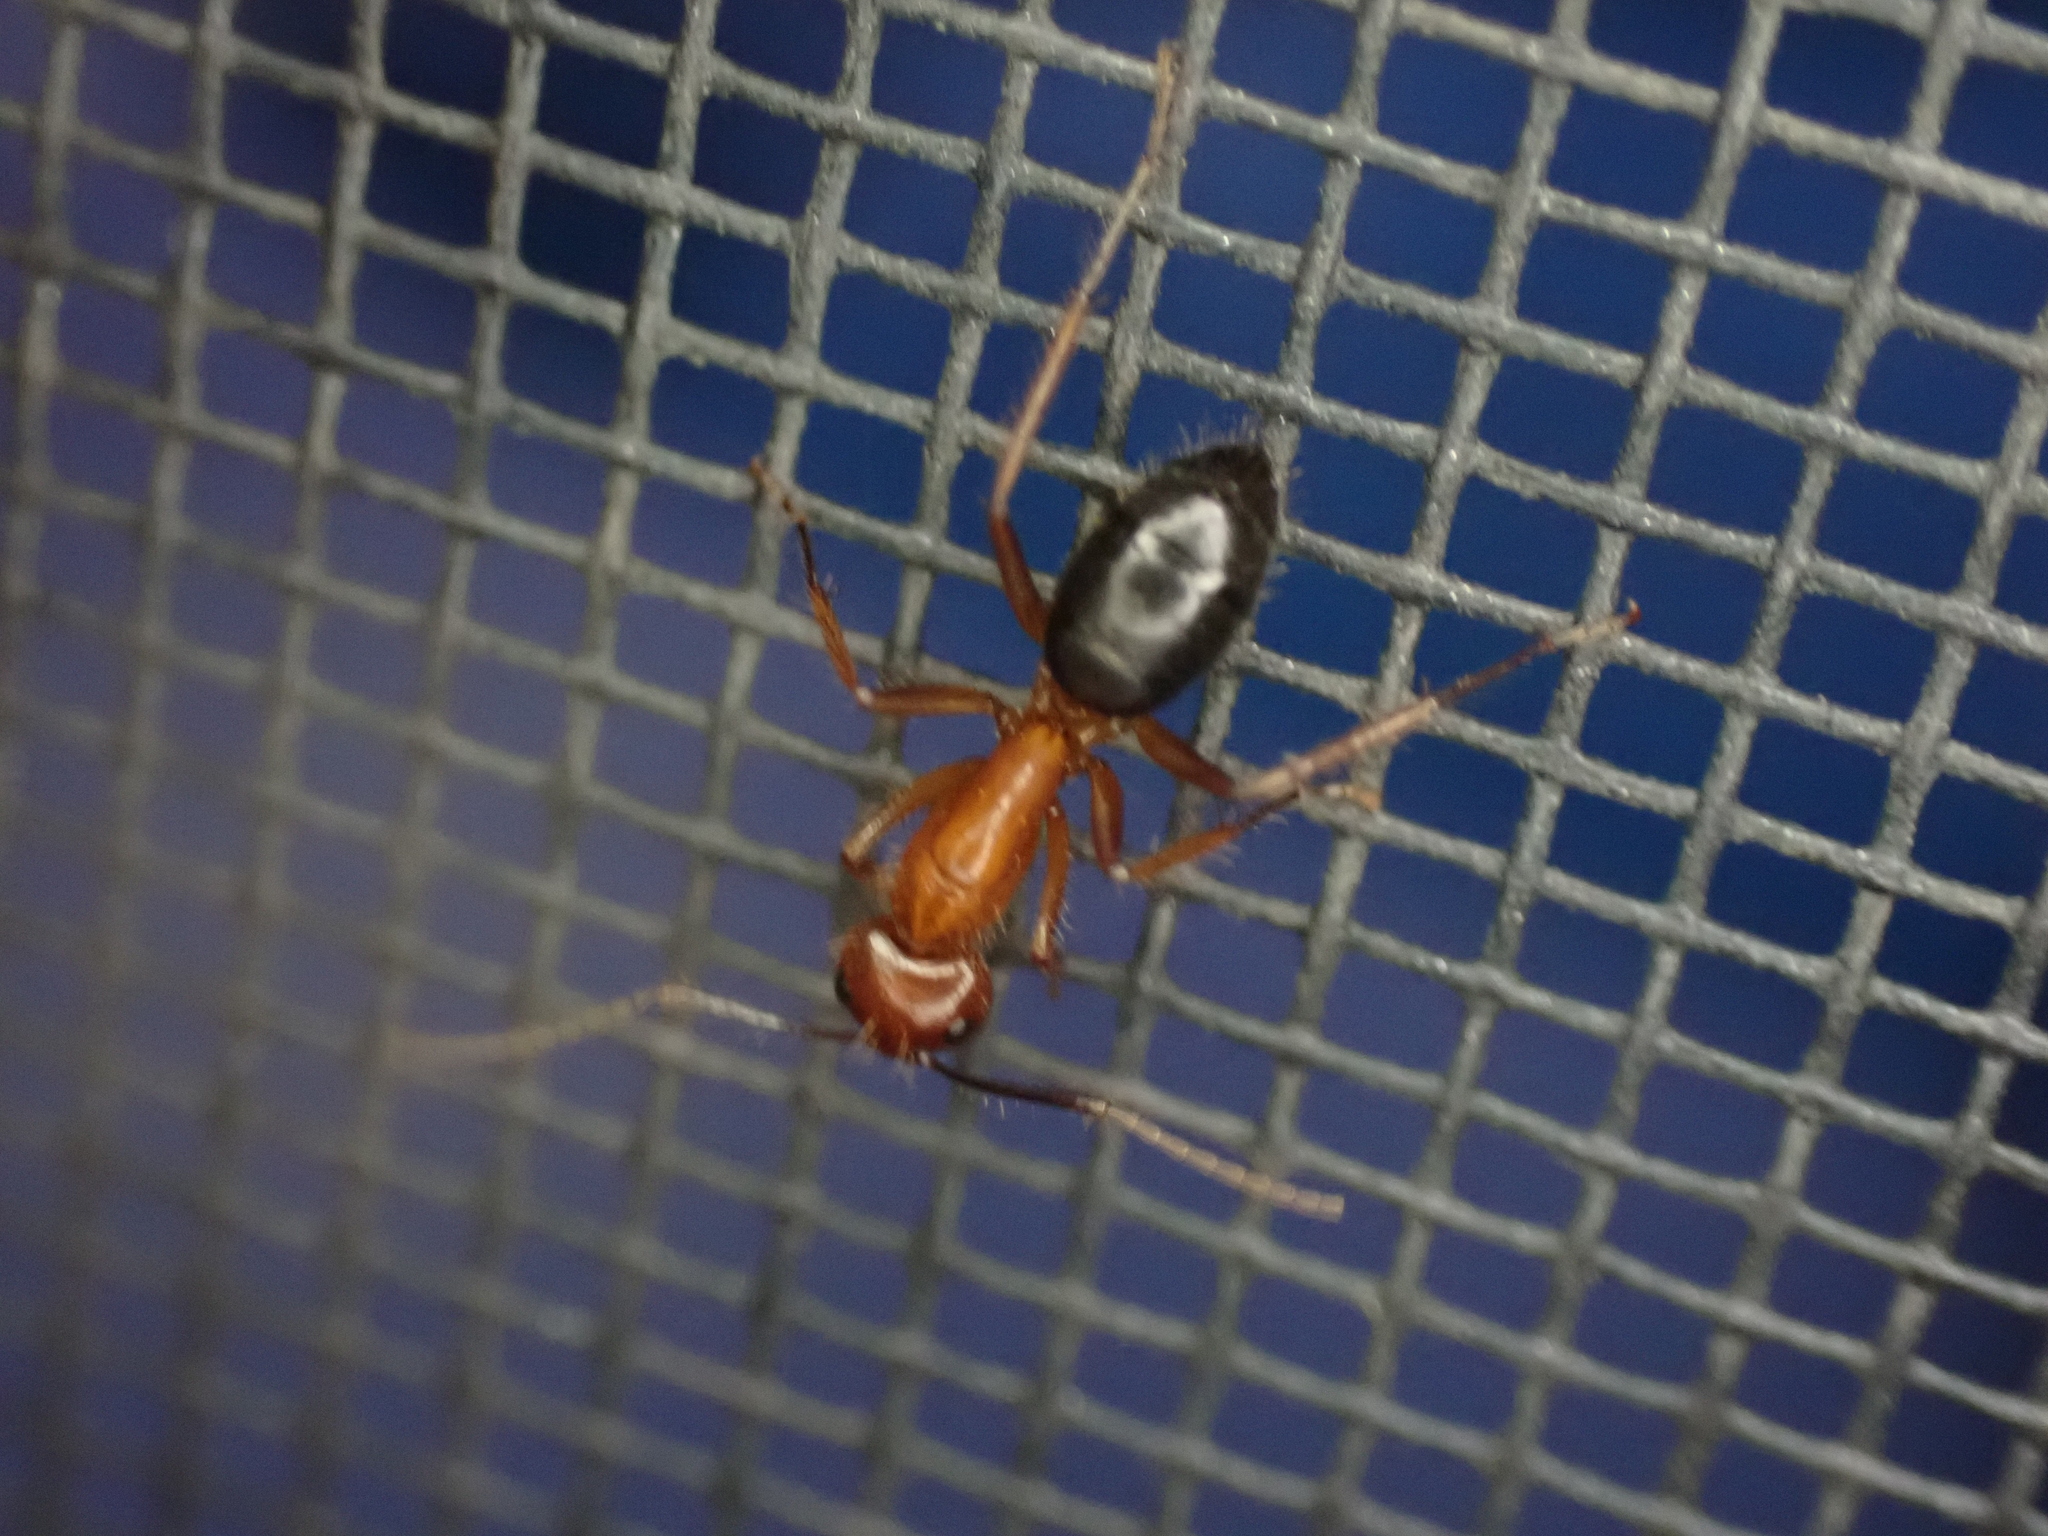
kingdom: Animalia
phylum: Arthropoda
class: Insecta
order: Hymenoptera
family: Formicidae
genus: Camponotus
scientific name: Camponotus floridanus
